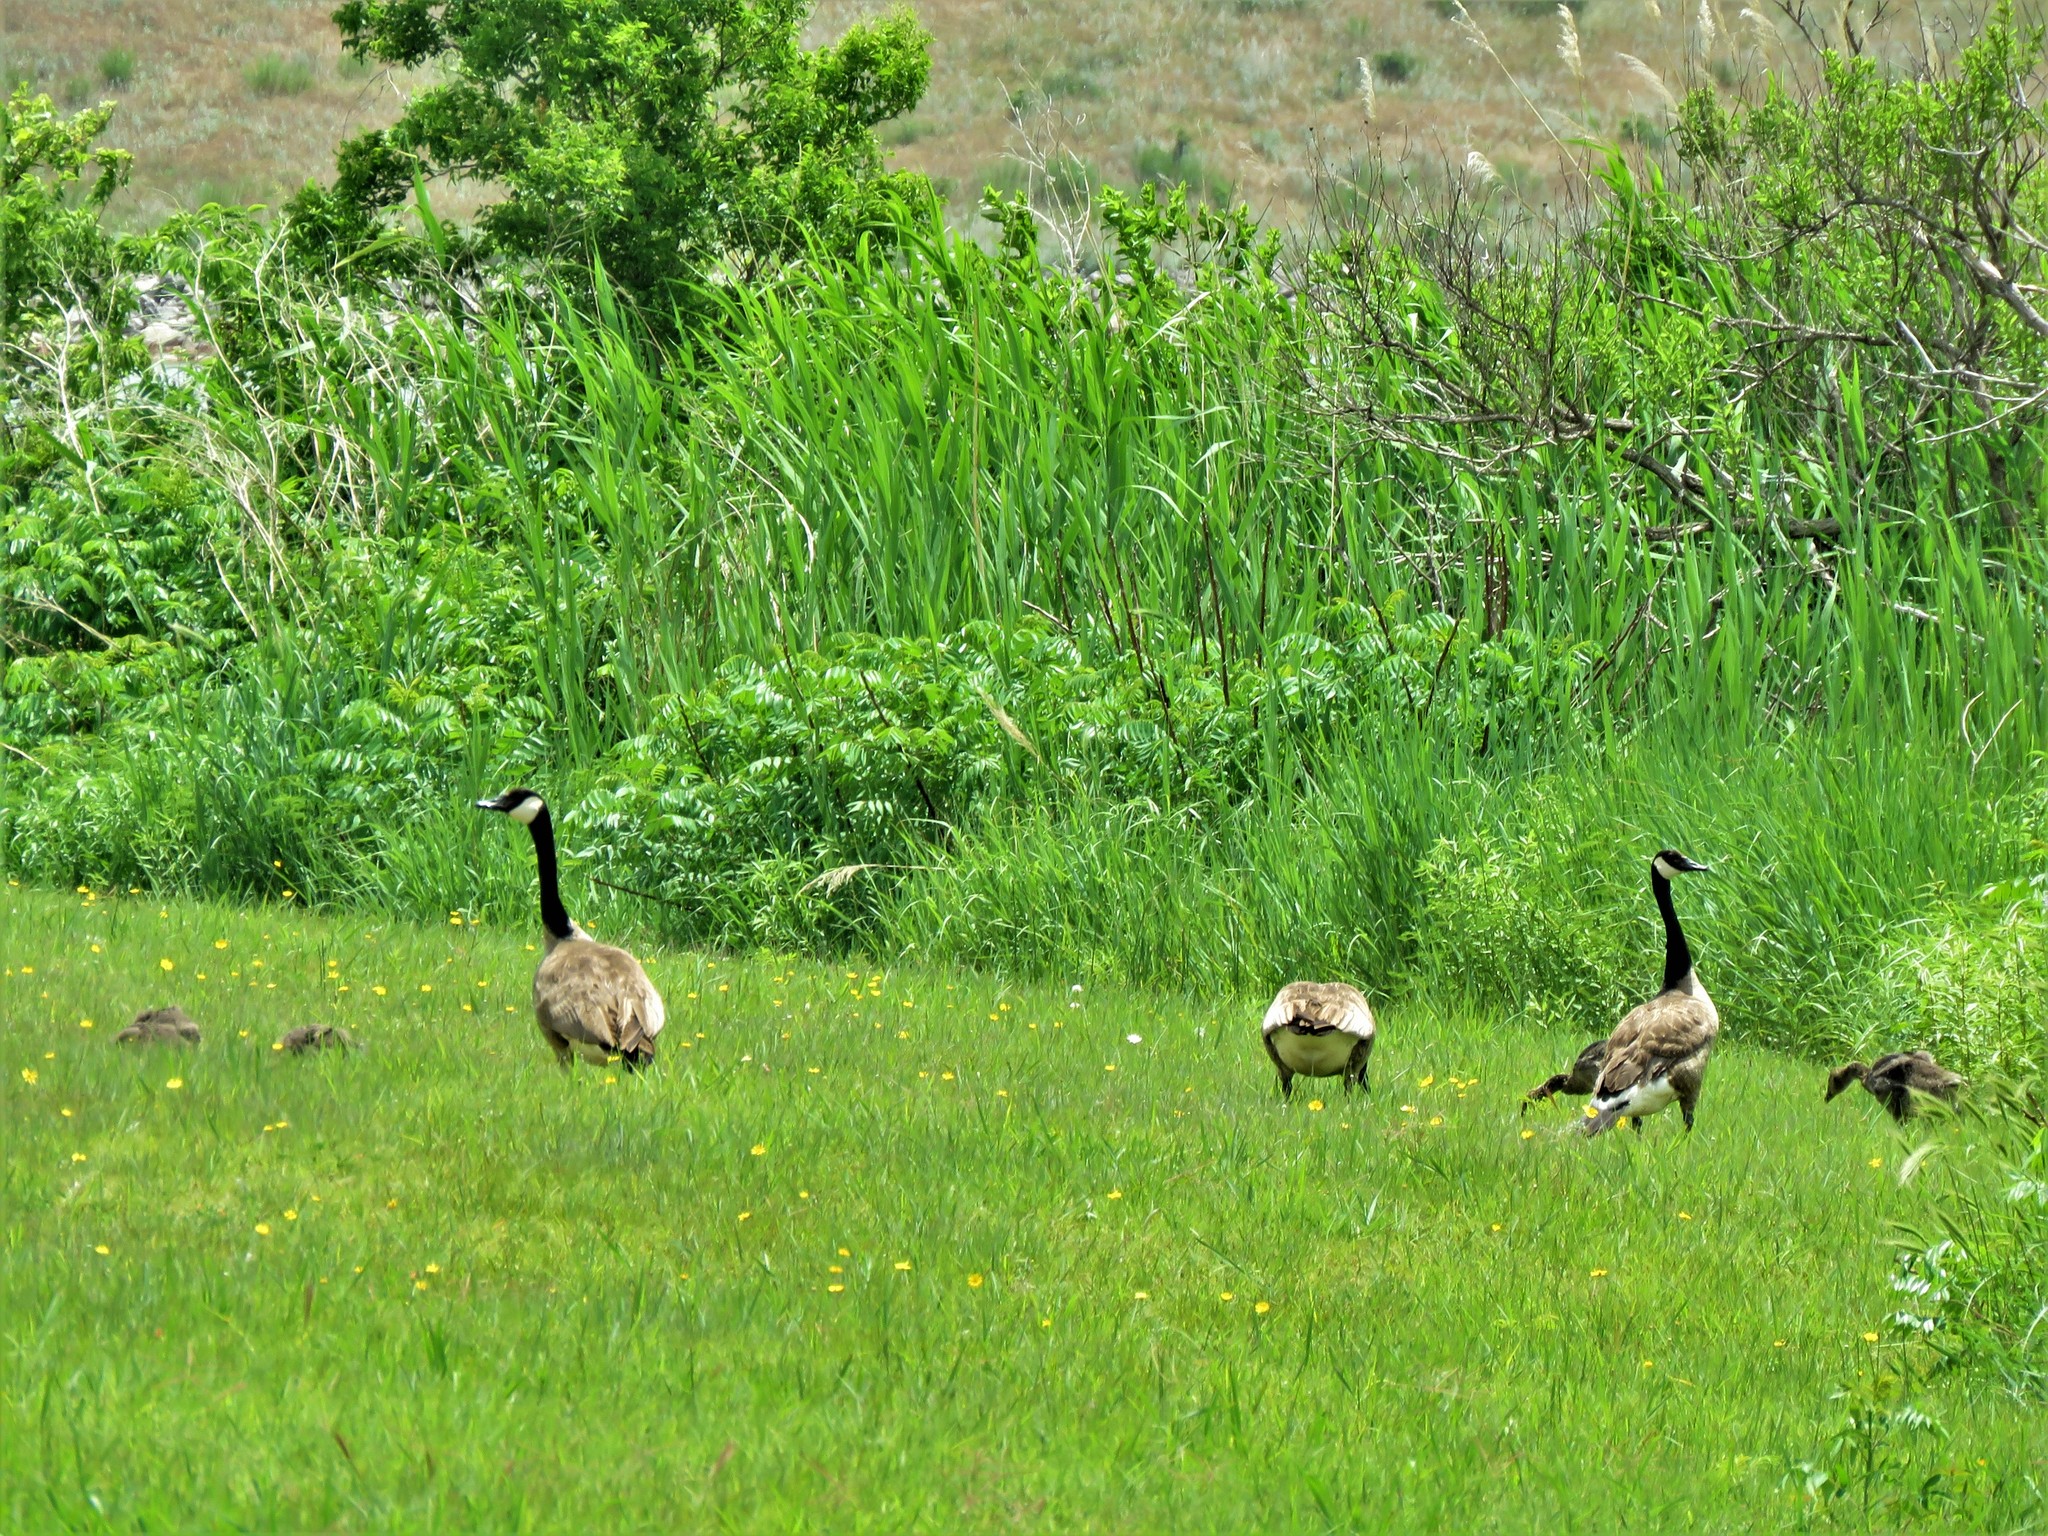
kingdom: Animalia
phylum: Chordata
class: Aves
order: Anseriformes
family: Anatidae
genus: Branta
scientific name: Branta canadensis
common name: Canada goose
